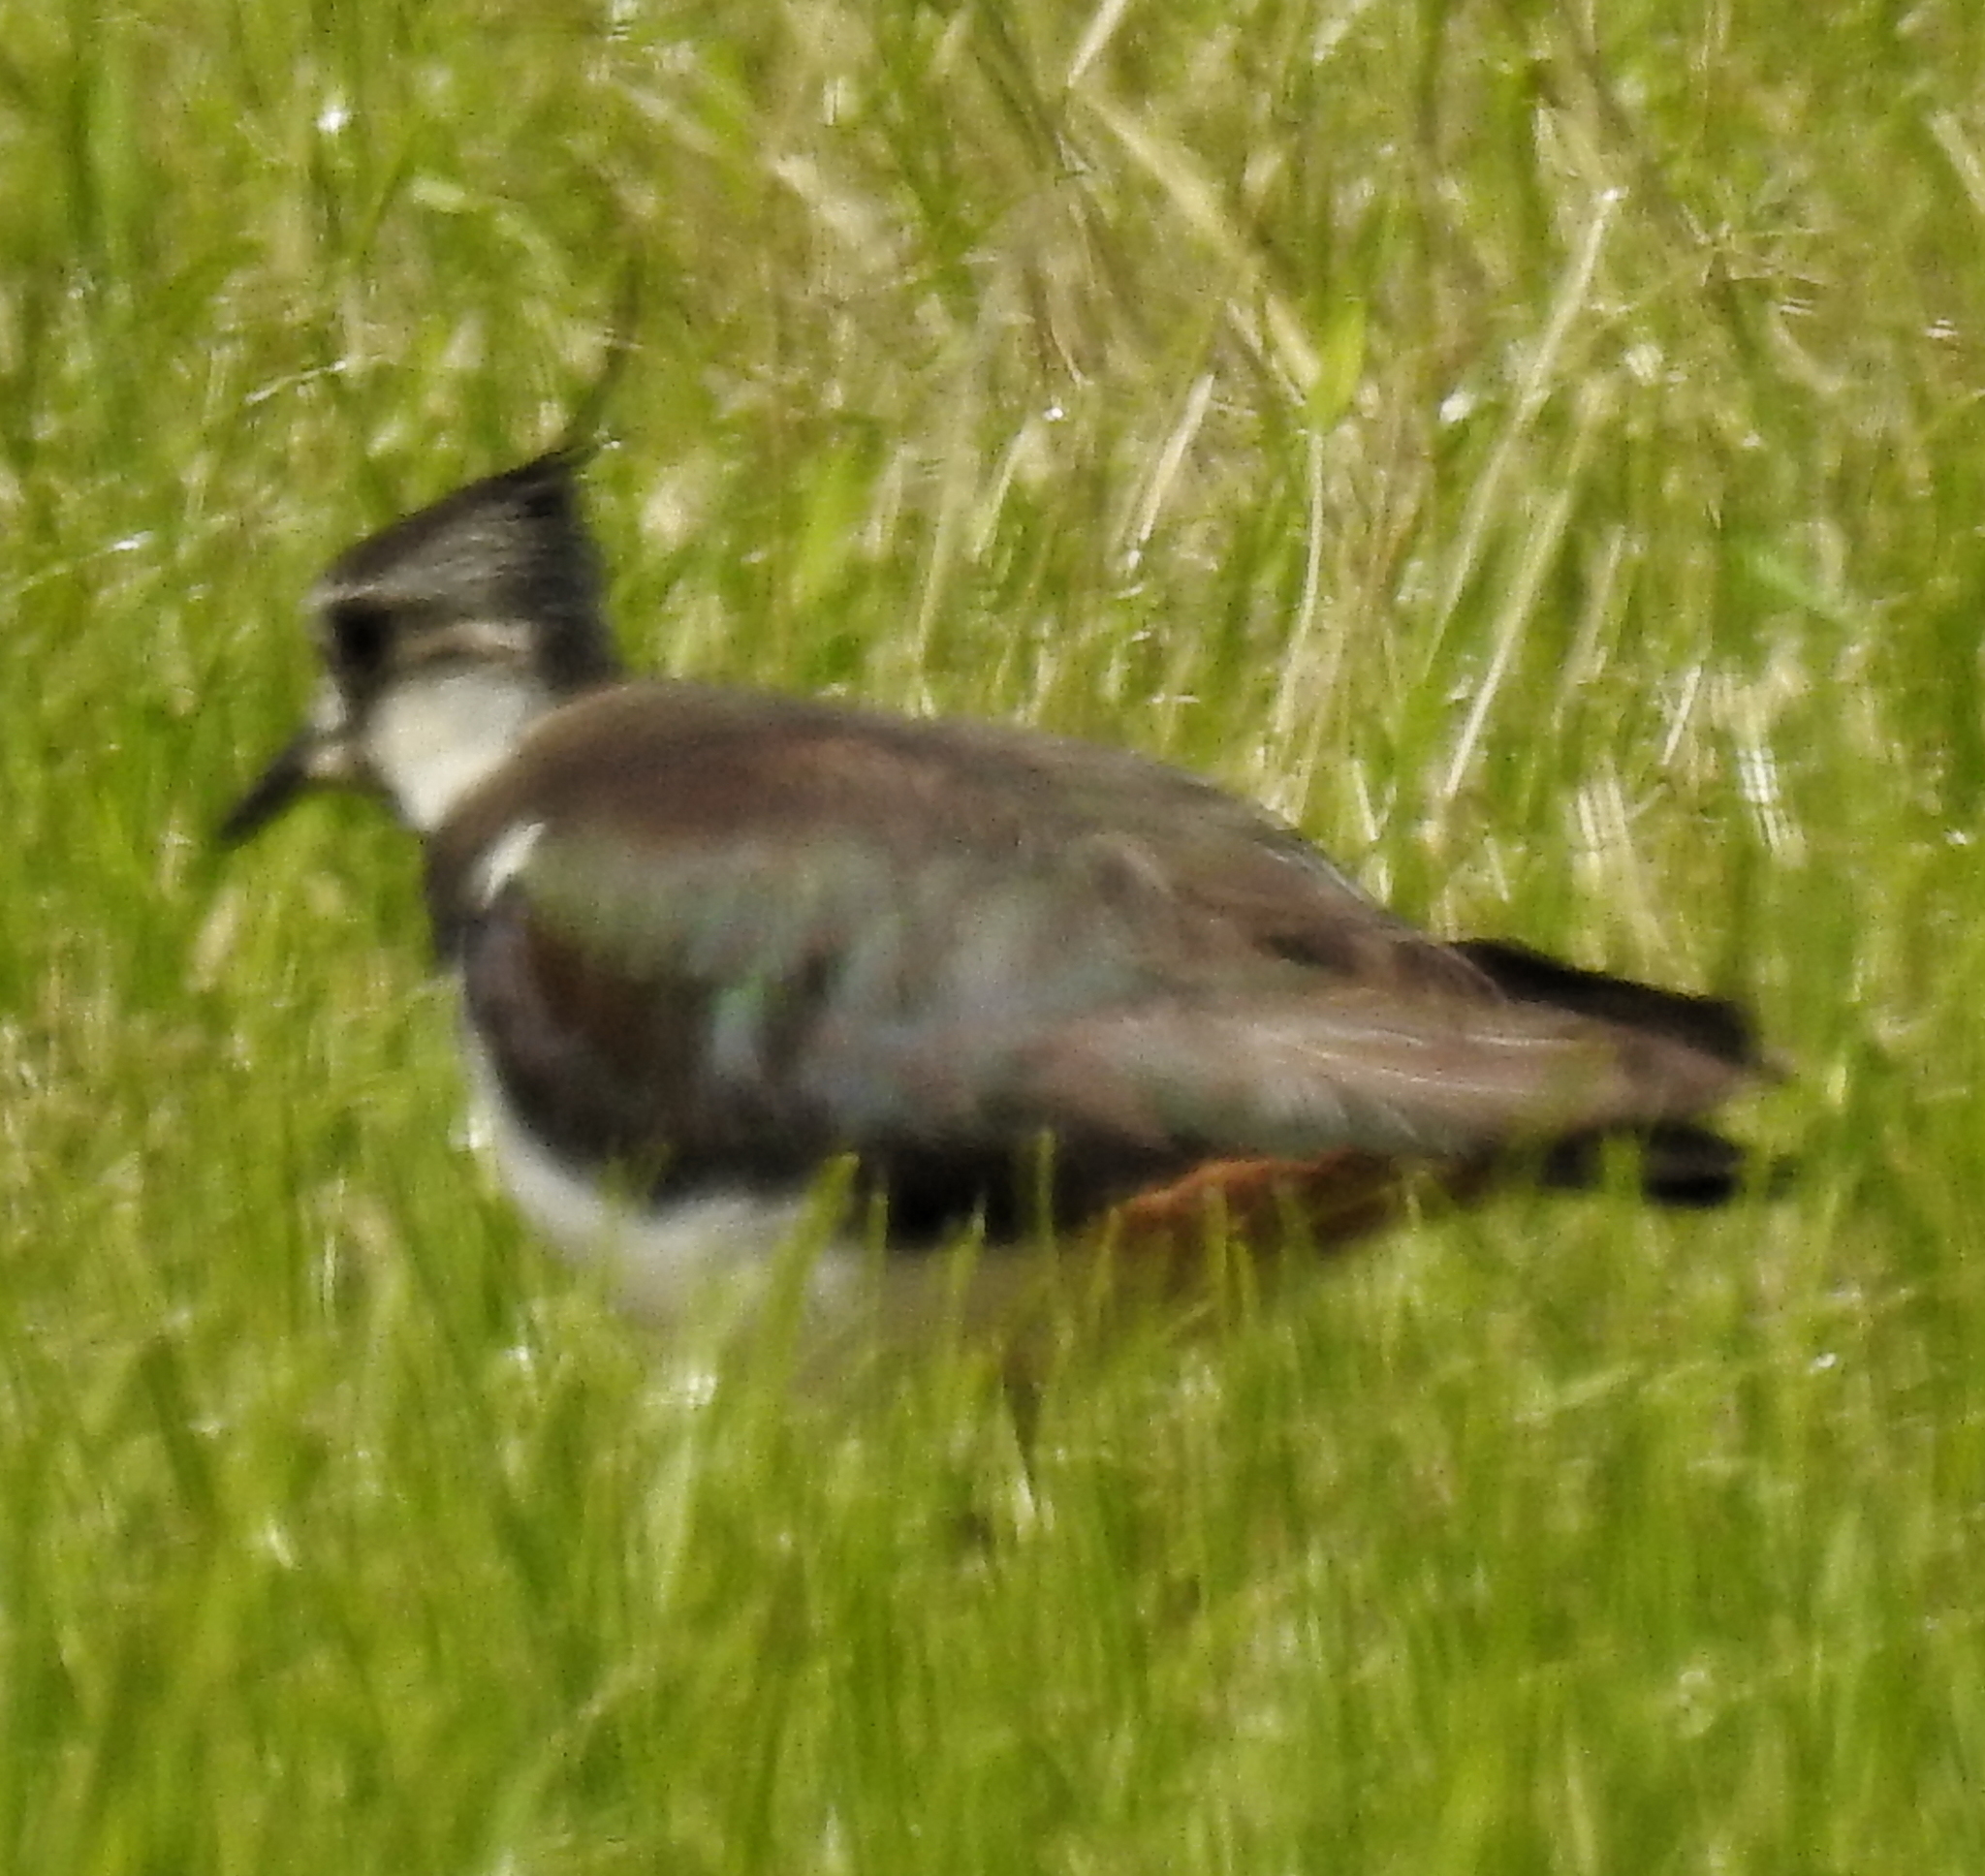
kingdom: Animalia
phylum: Chordata
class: Aves
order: Charadriiformes
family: Charadriidae
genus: Vanellus
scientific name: Vanellus vanellus
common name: Northern lapwing
